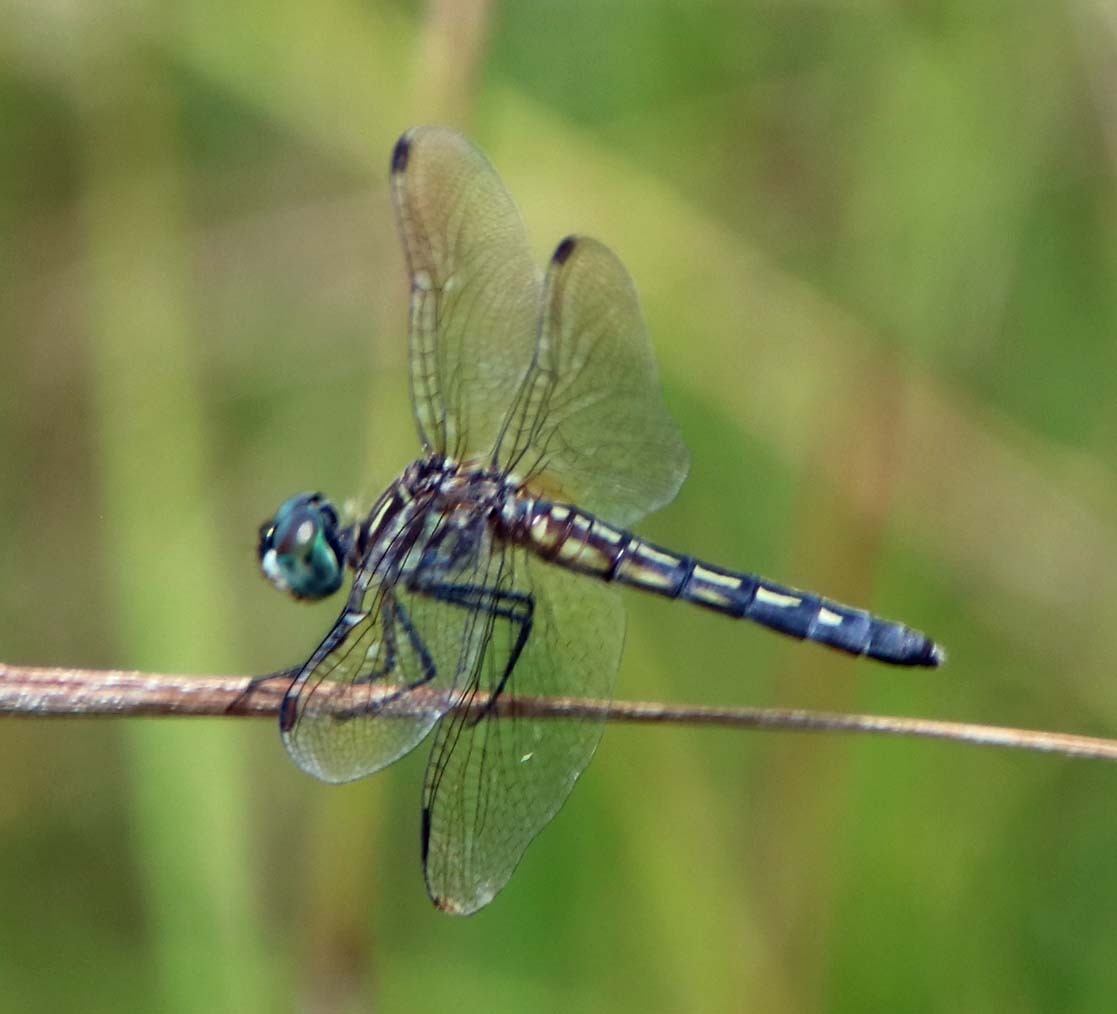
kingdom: Animalia
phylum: Arthropoda
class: Insecta
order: Odonata
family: Libellulidae
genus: Pachydiplax
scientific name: Pachydiplax longipennis
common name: Blue dasher
